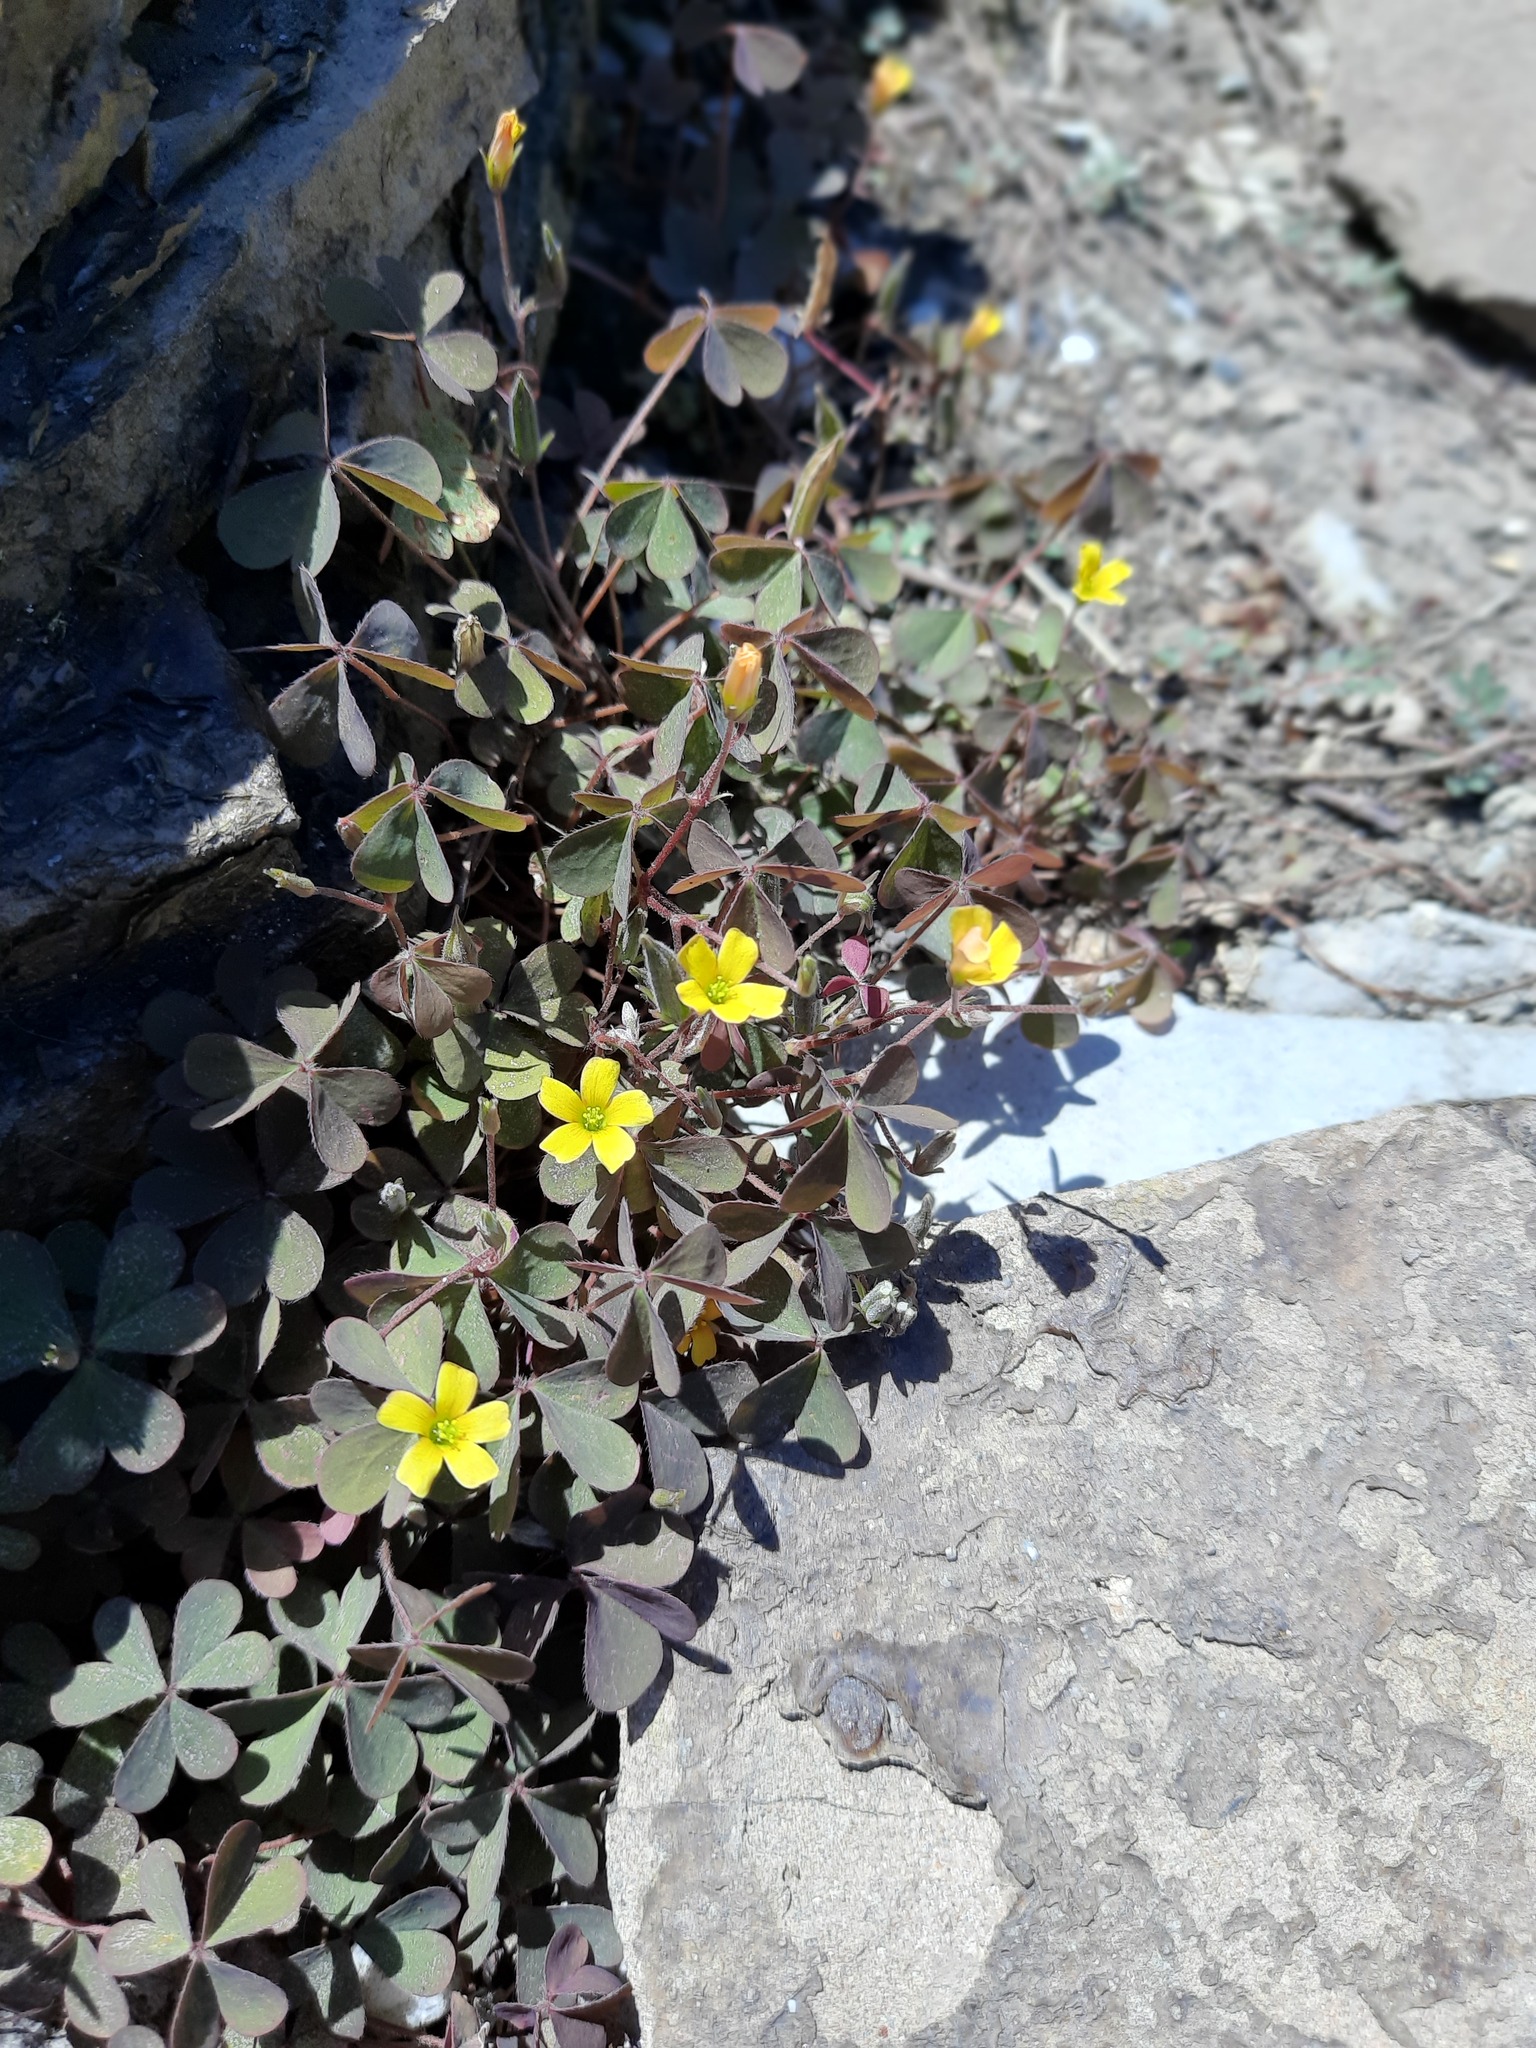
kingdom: Plantae
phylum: Tracheophyta
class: Magnoliopsida
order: Oxalidales
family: Oxalidaceae
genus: Oxalis
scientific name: Oxalis corniculata
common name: Procumbent yellow-sorrel
